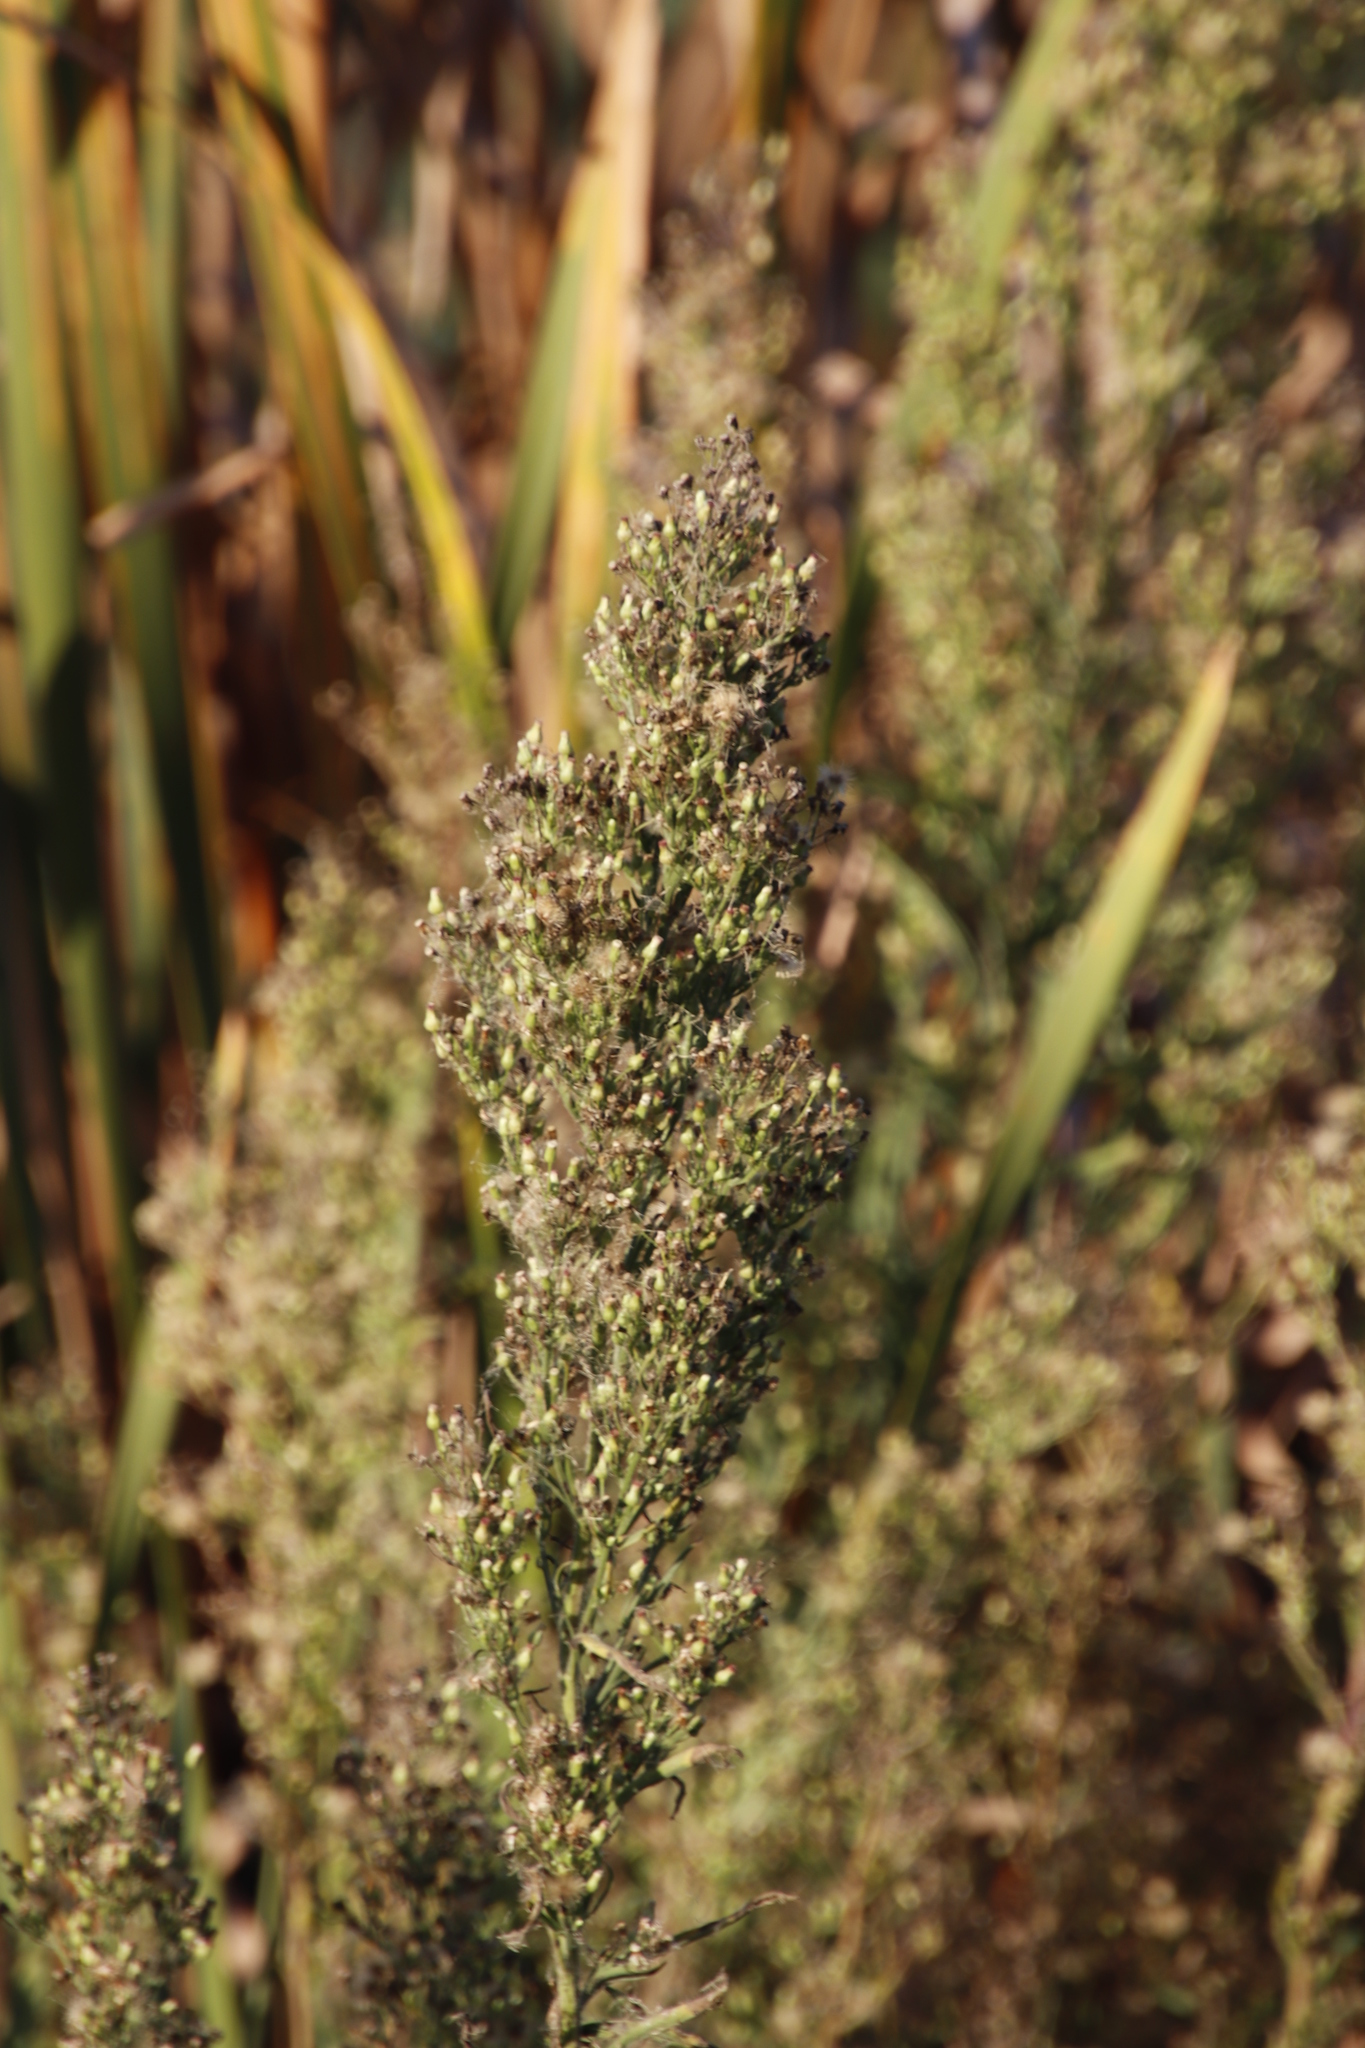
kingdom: Plantae
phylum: Tracheophyta
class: Magnoliopsida
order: Asterales
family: Asteraceae
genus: Erigeron
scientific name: Erigeron sumatrensis
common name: Daisy
